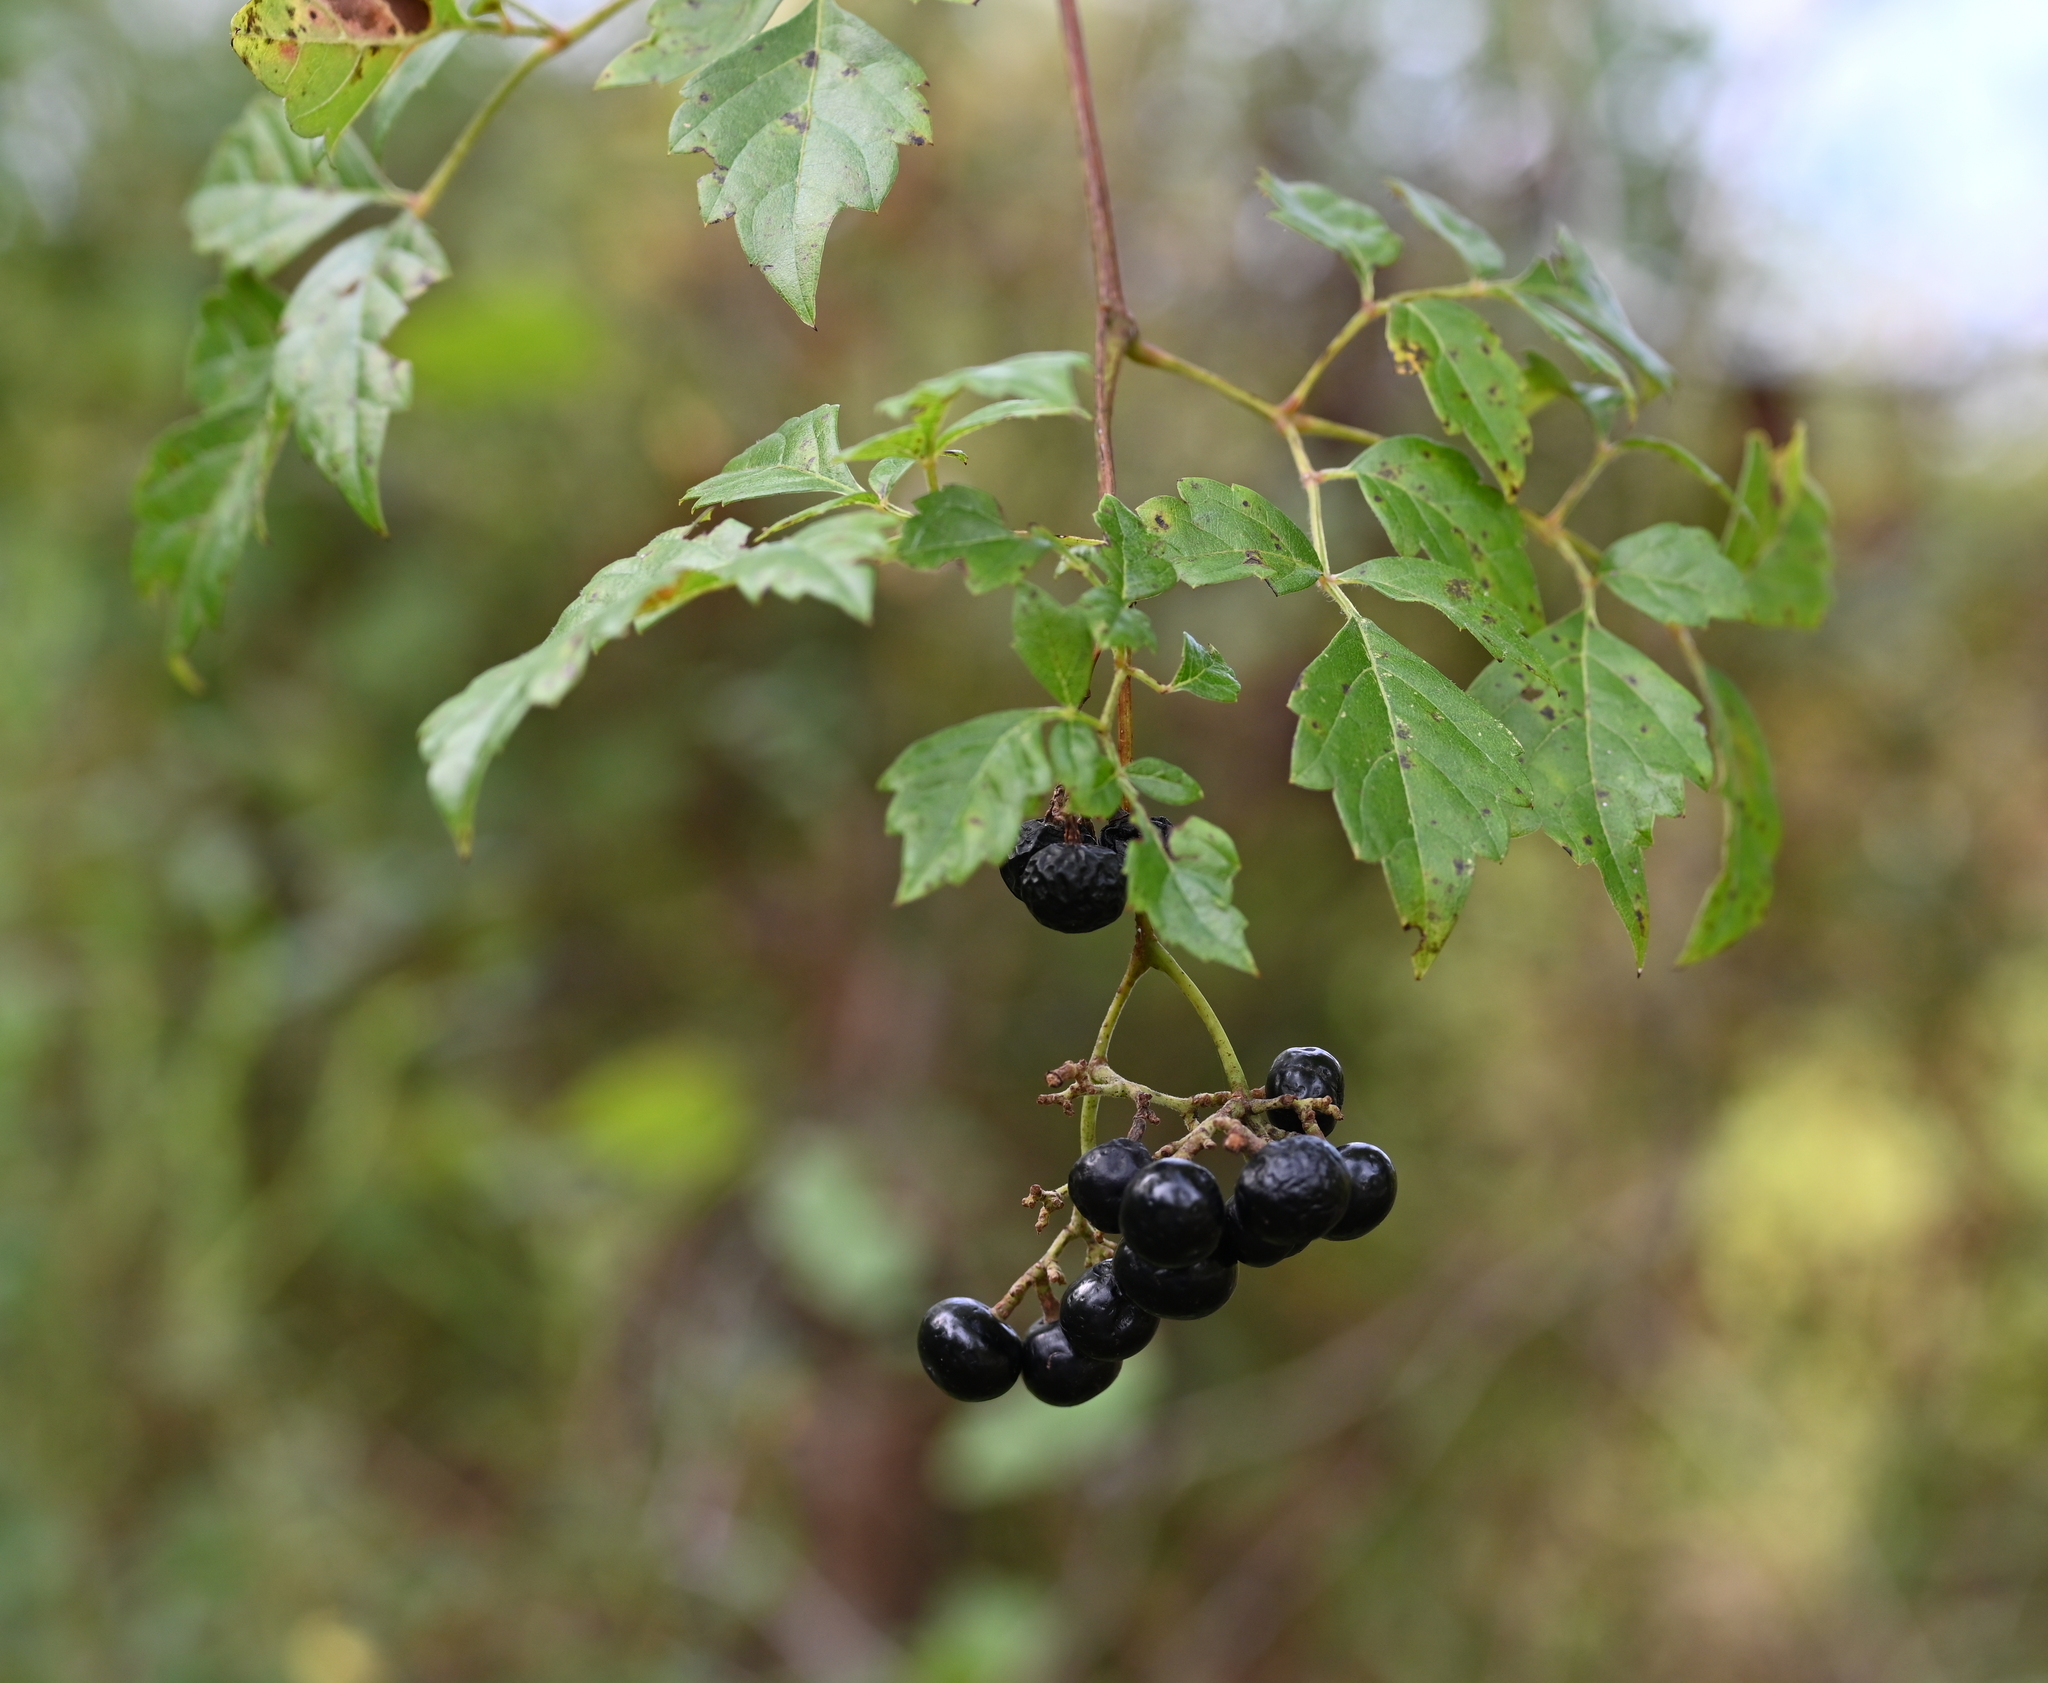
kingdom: Plantae
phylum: Tracheophyta
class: Magnoliopsida
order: Vitales
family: Vitaceae
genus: Nekemias
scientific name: Nekemias arborea
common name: Peppervine
